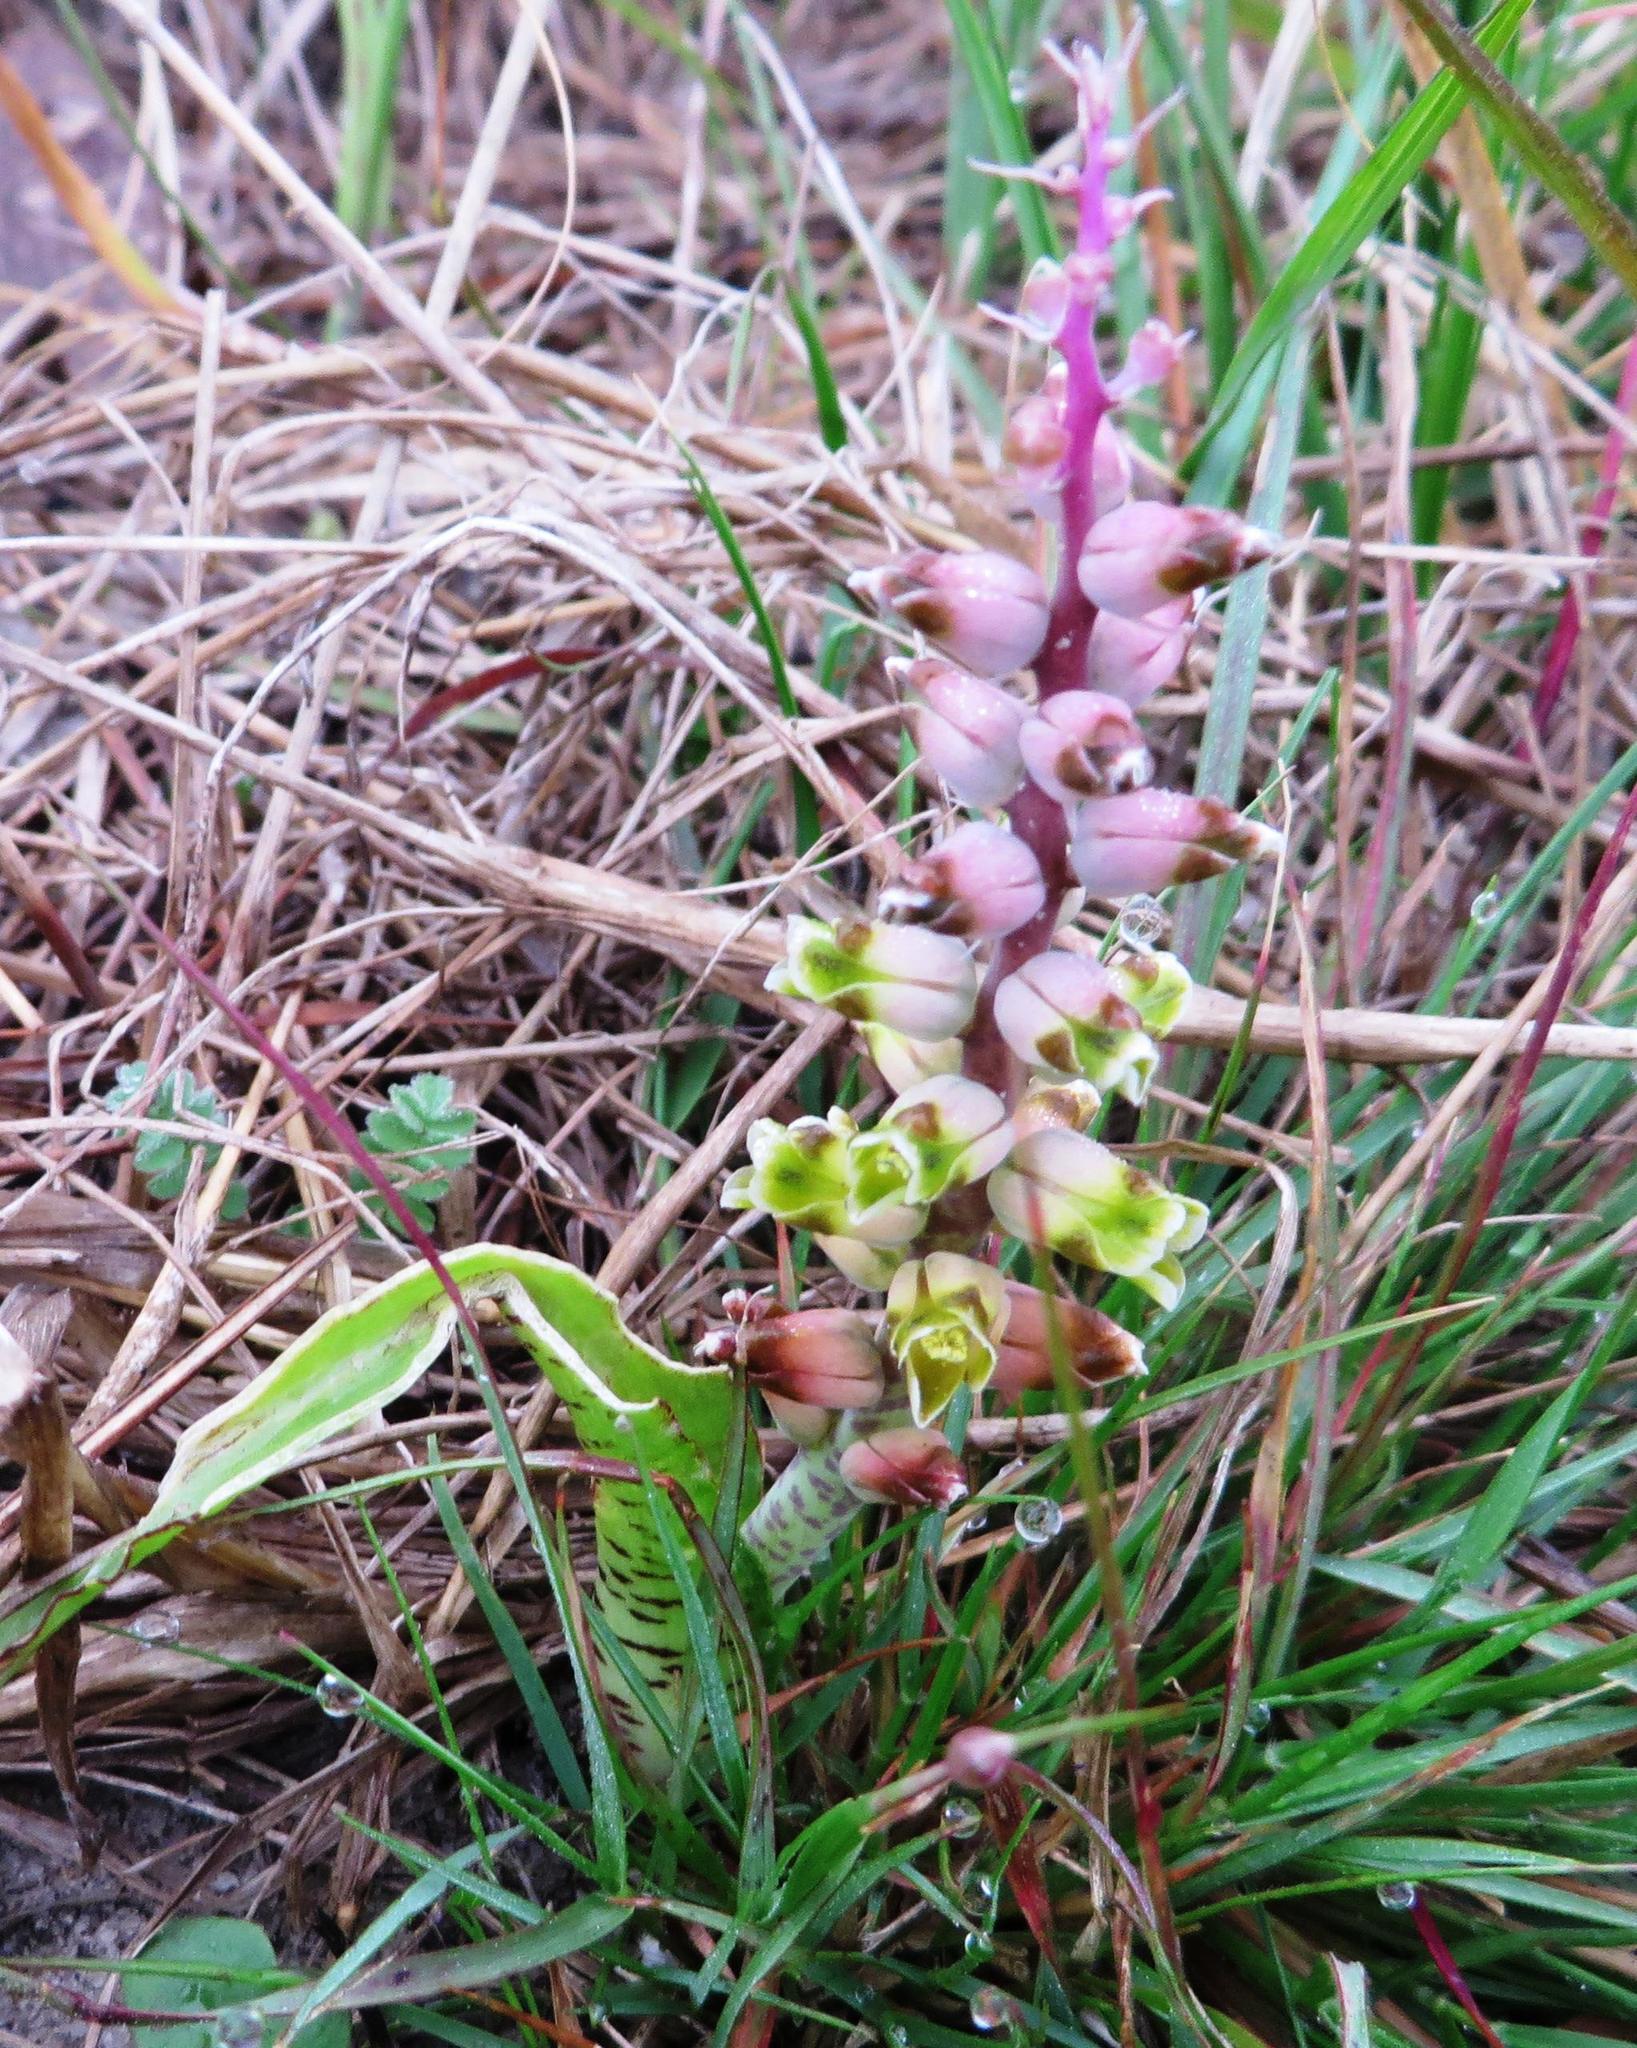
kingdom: Plantae
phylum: Tracheophyta
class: Liliopsida
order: Asparagales
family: Asparagaceae
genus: Lachenalia
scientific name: Lachenalia mutabilis
